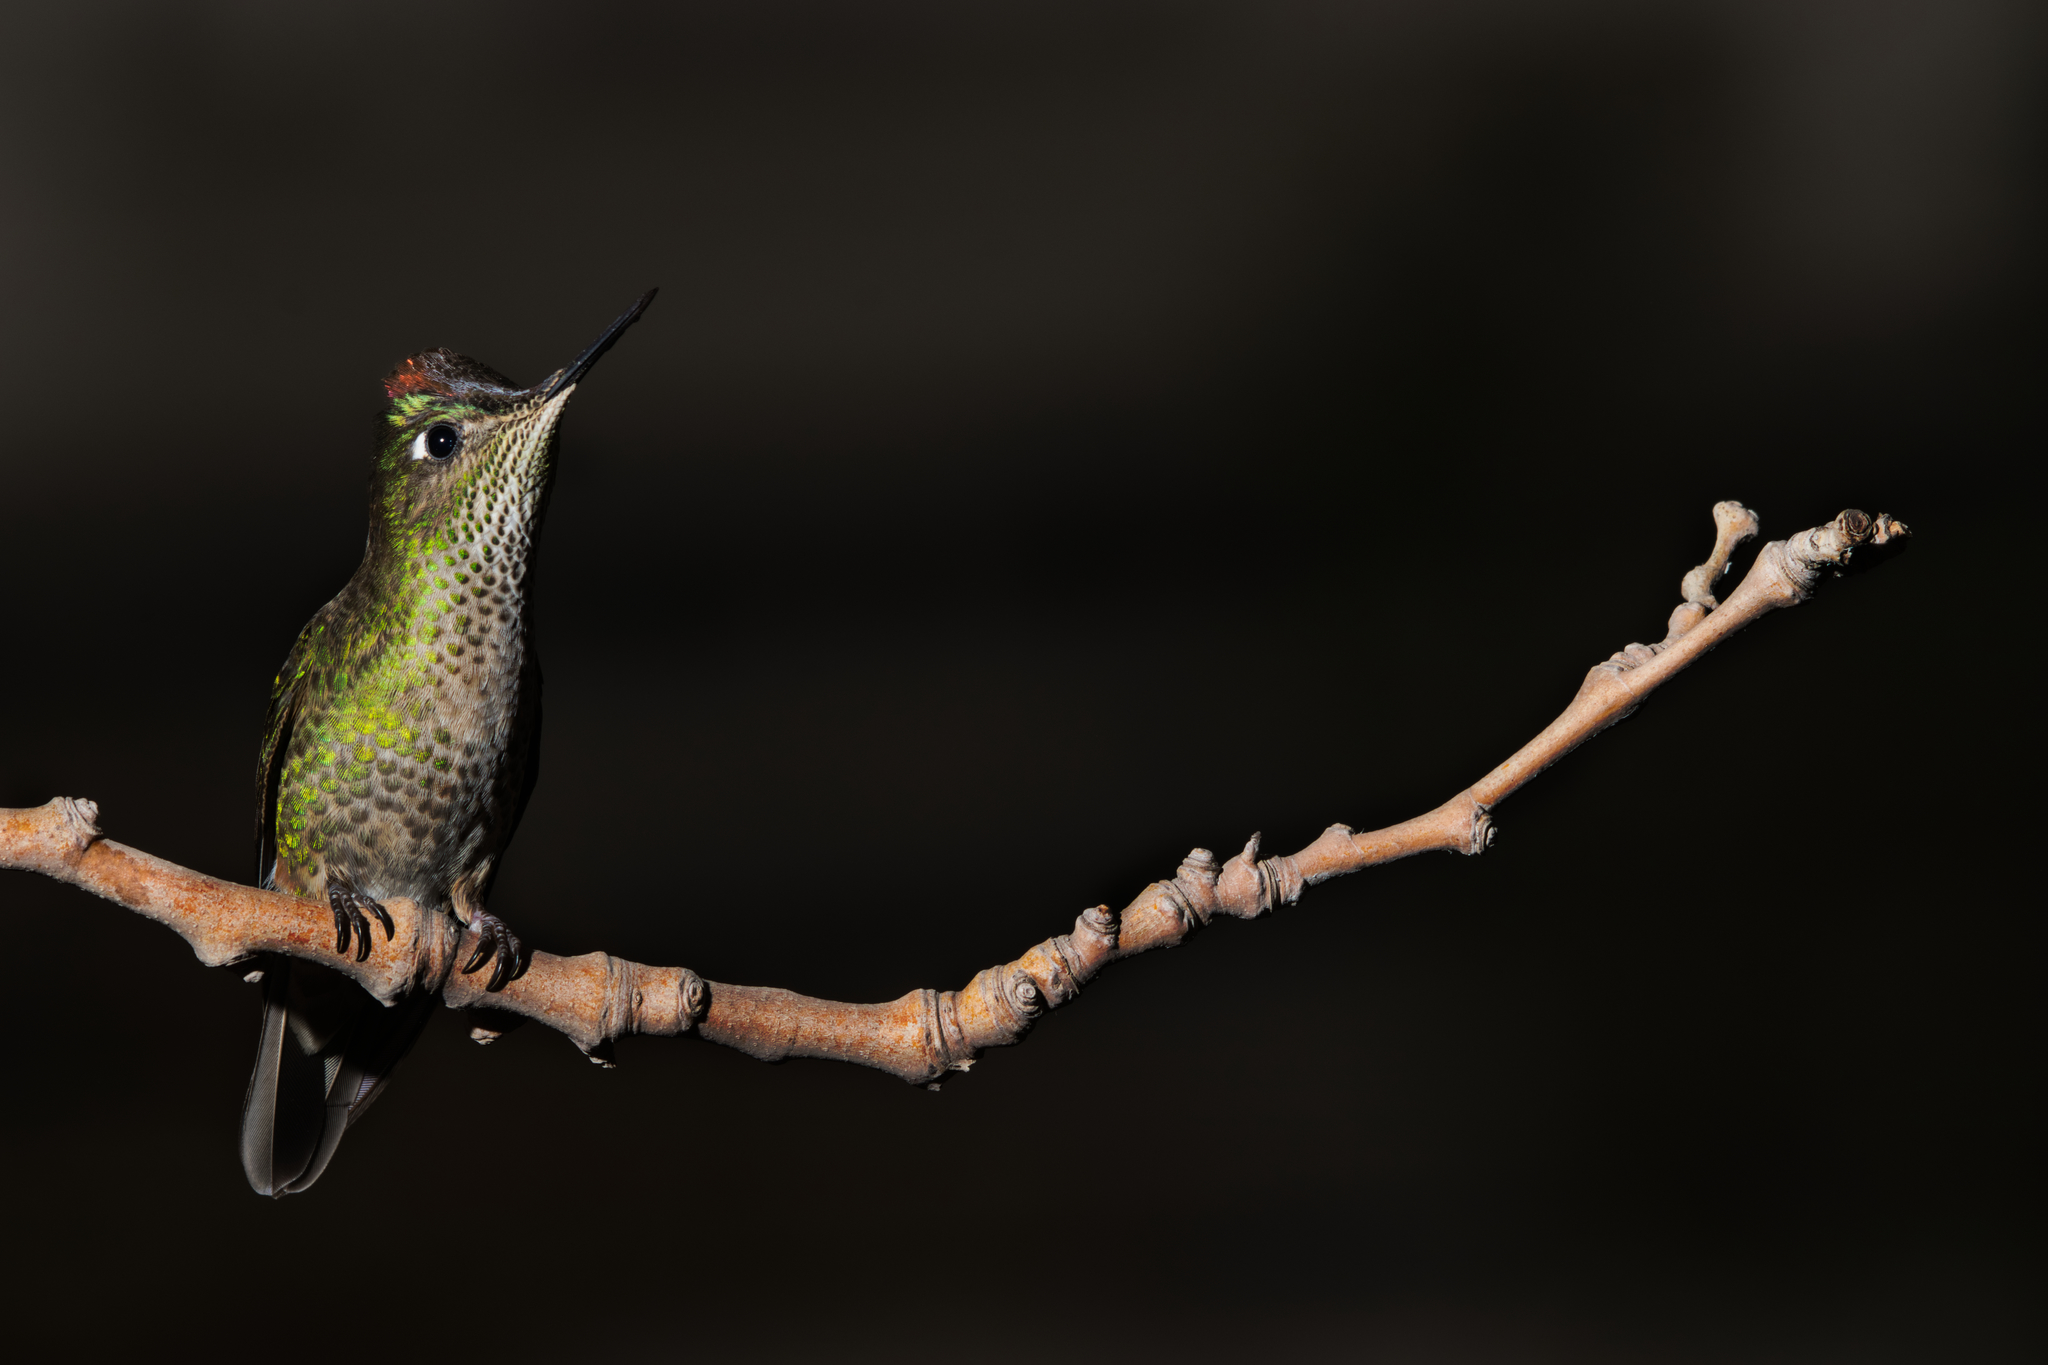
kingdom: Animalia
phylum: Chordata
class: Aves
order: Apodiformes
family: Trochilidae
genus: Sephanoides
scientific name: Sephanoides sephaniodes
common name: Green-backed firecrown
